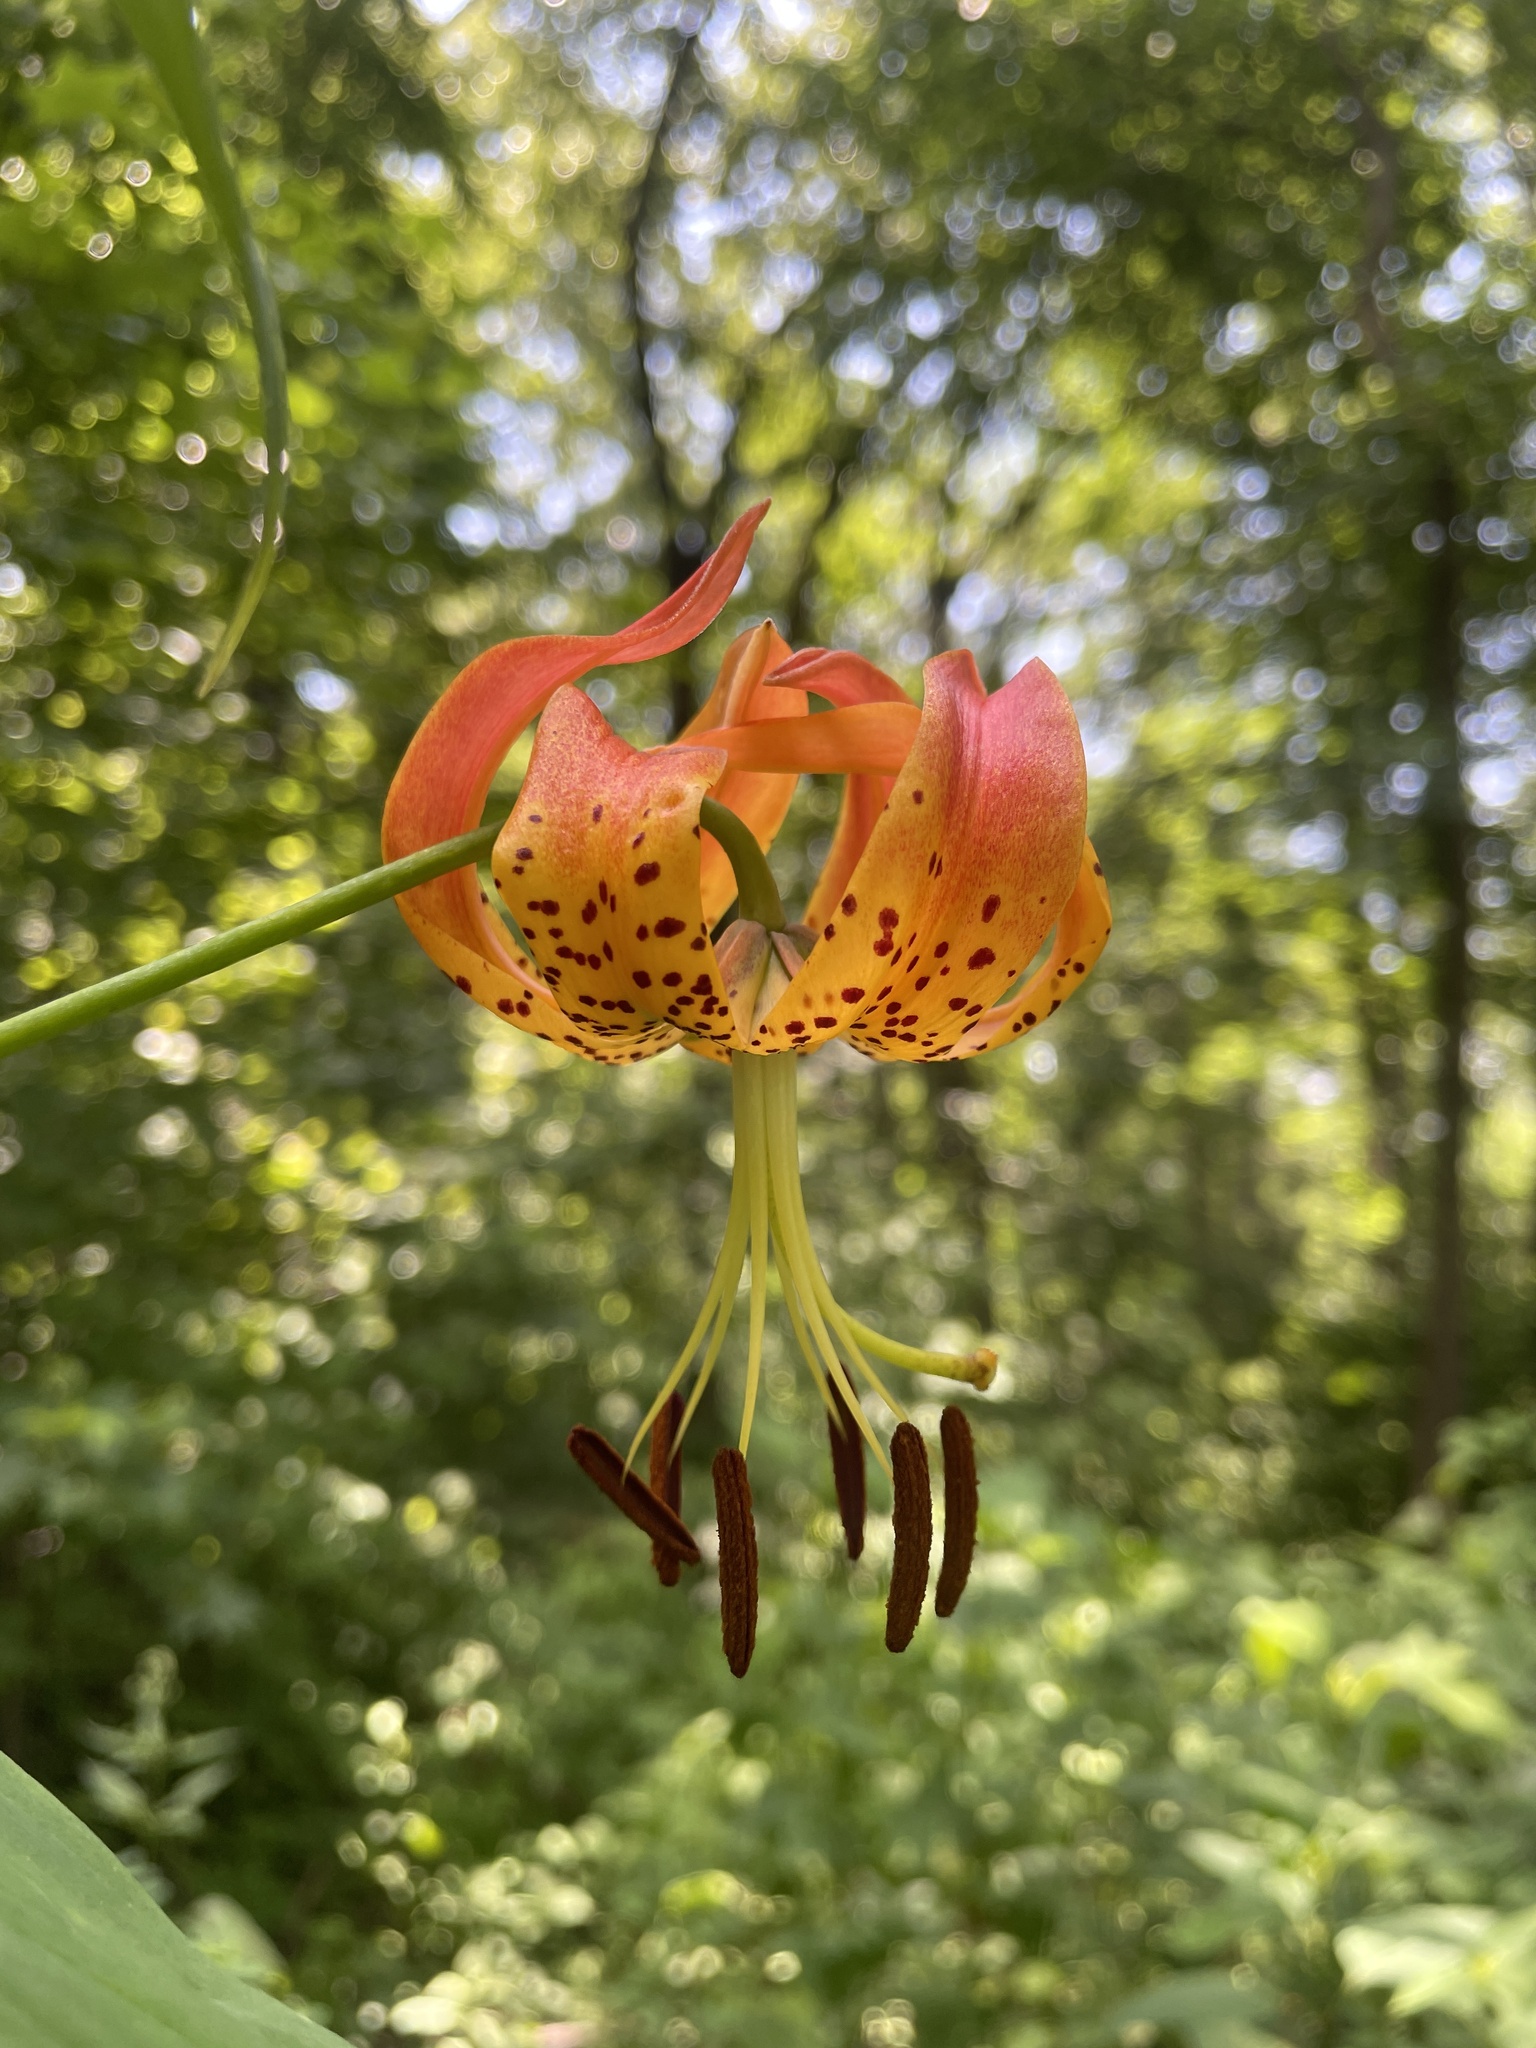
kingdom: Plantae
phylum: Tracheophyta
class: Liliopsida
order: Liliales
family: Liliaceae
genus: Lilium
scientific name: Lilium superbum
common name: American turk's-cap lily
